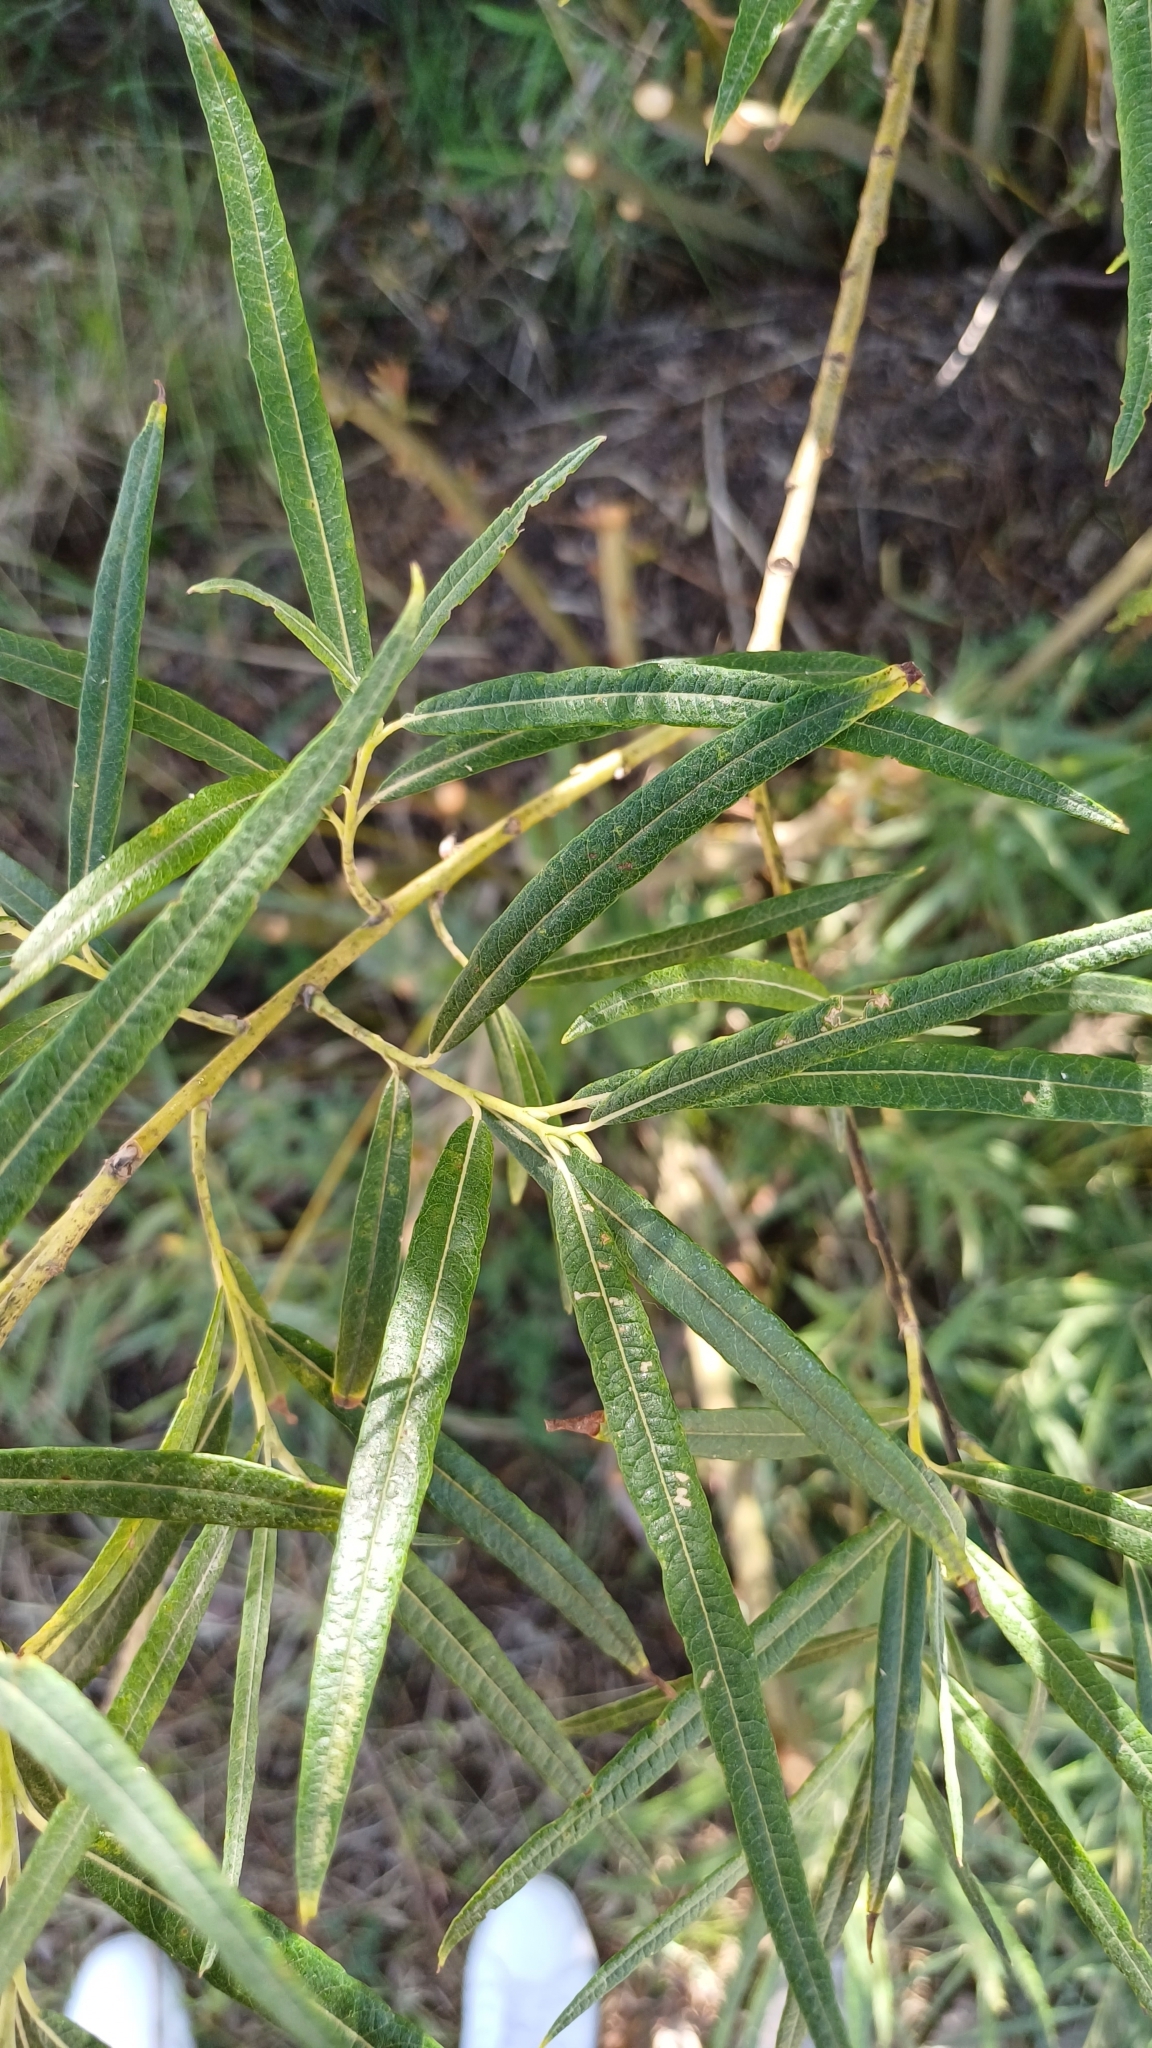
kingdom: Plantae
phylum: Tracheophyta
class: Magnoliopsida
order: Malpighiales
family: Salicaceae
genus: Salix
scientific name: Salix viminalis
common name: Osier
